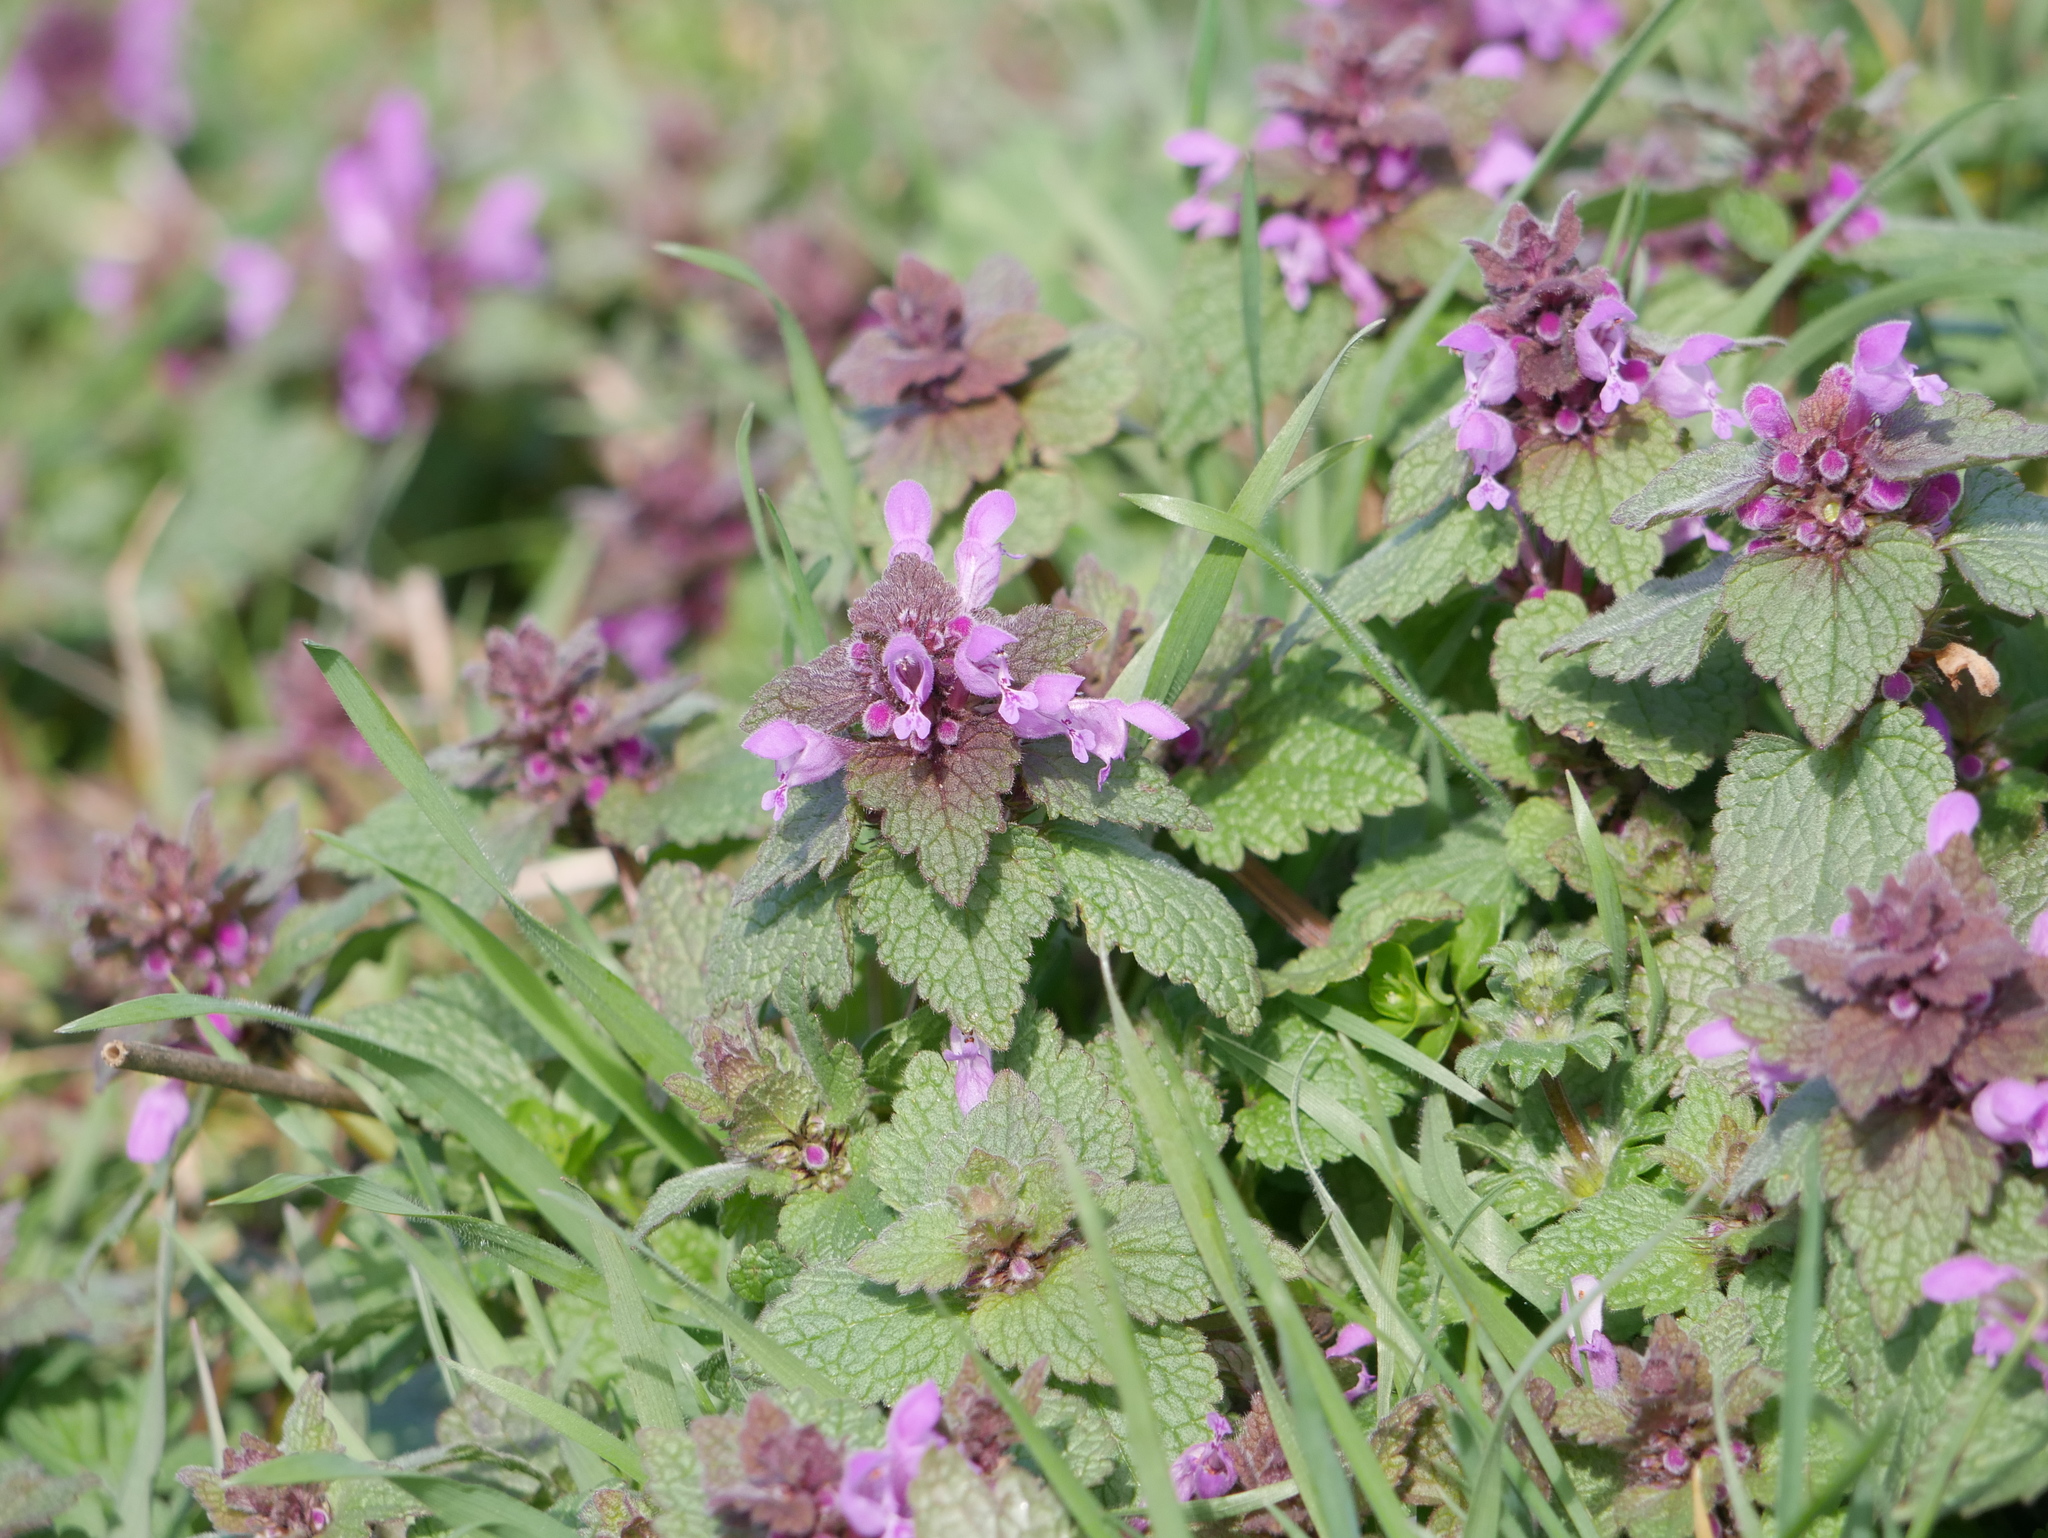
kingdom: Plantae
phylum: Tracheophyta
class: Magnoliopsida
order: Lamiales
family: Lamiaceae
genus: Lamium
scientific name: Lamium purpureum
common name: Red dead-nettle
